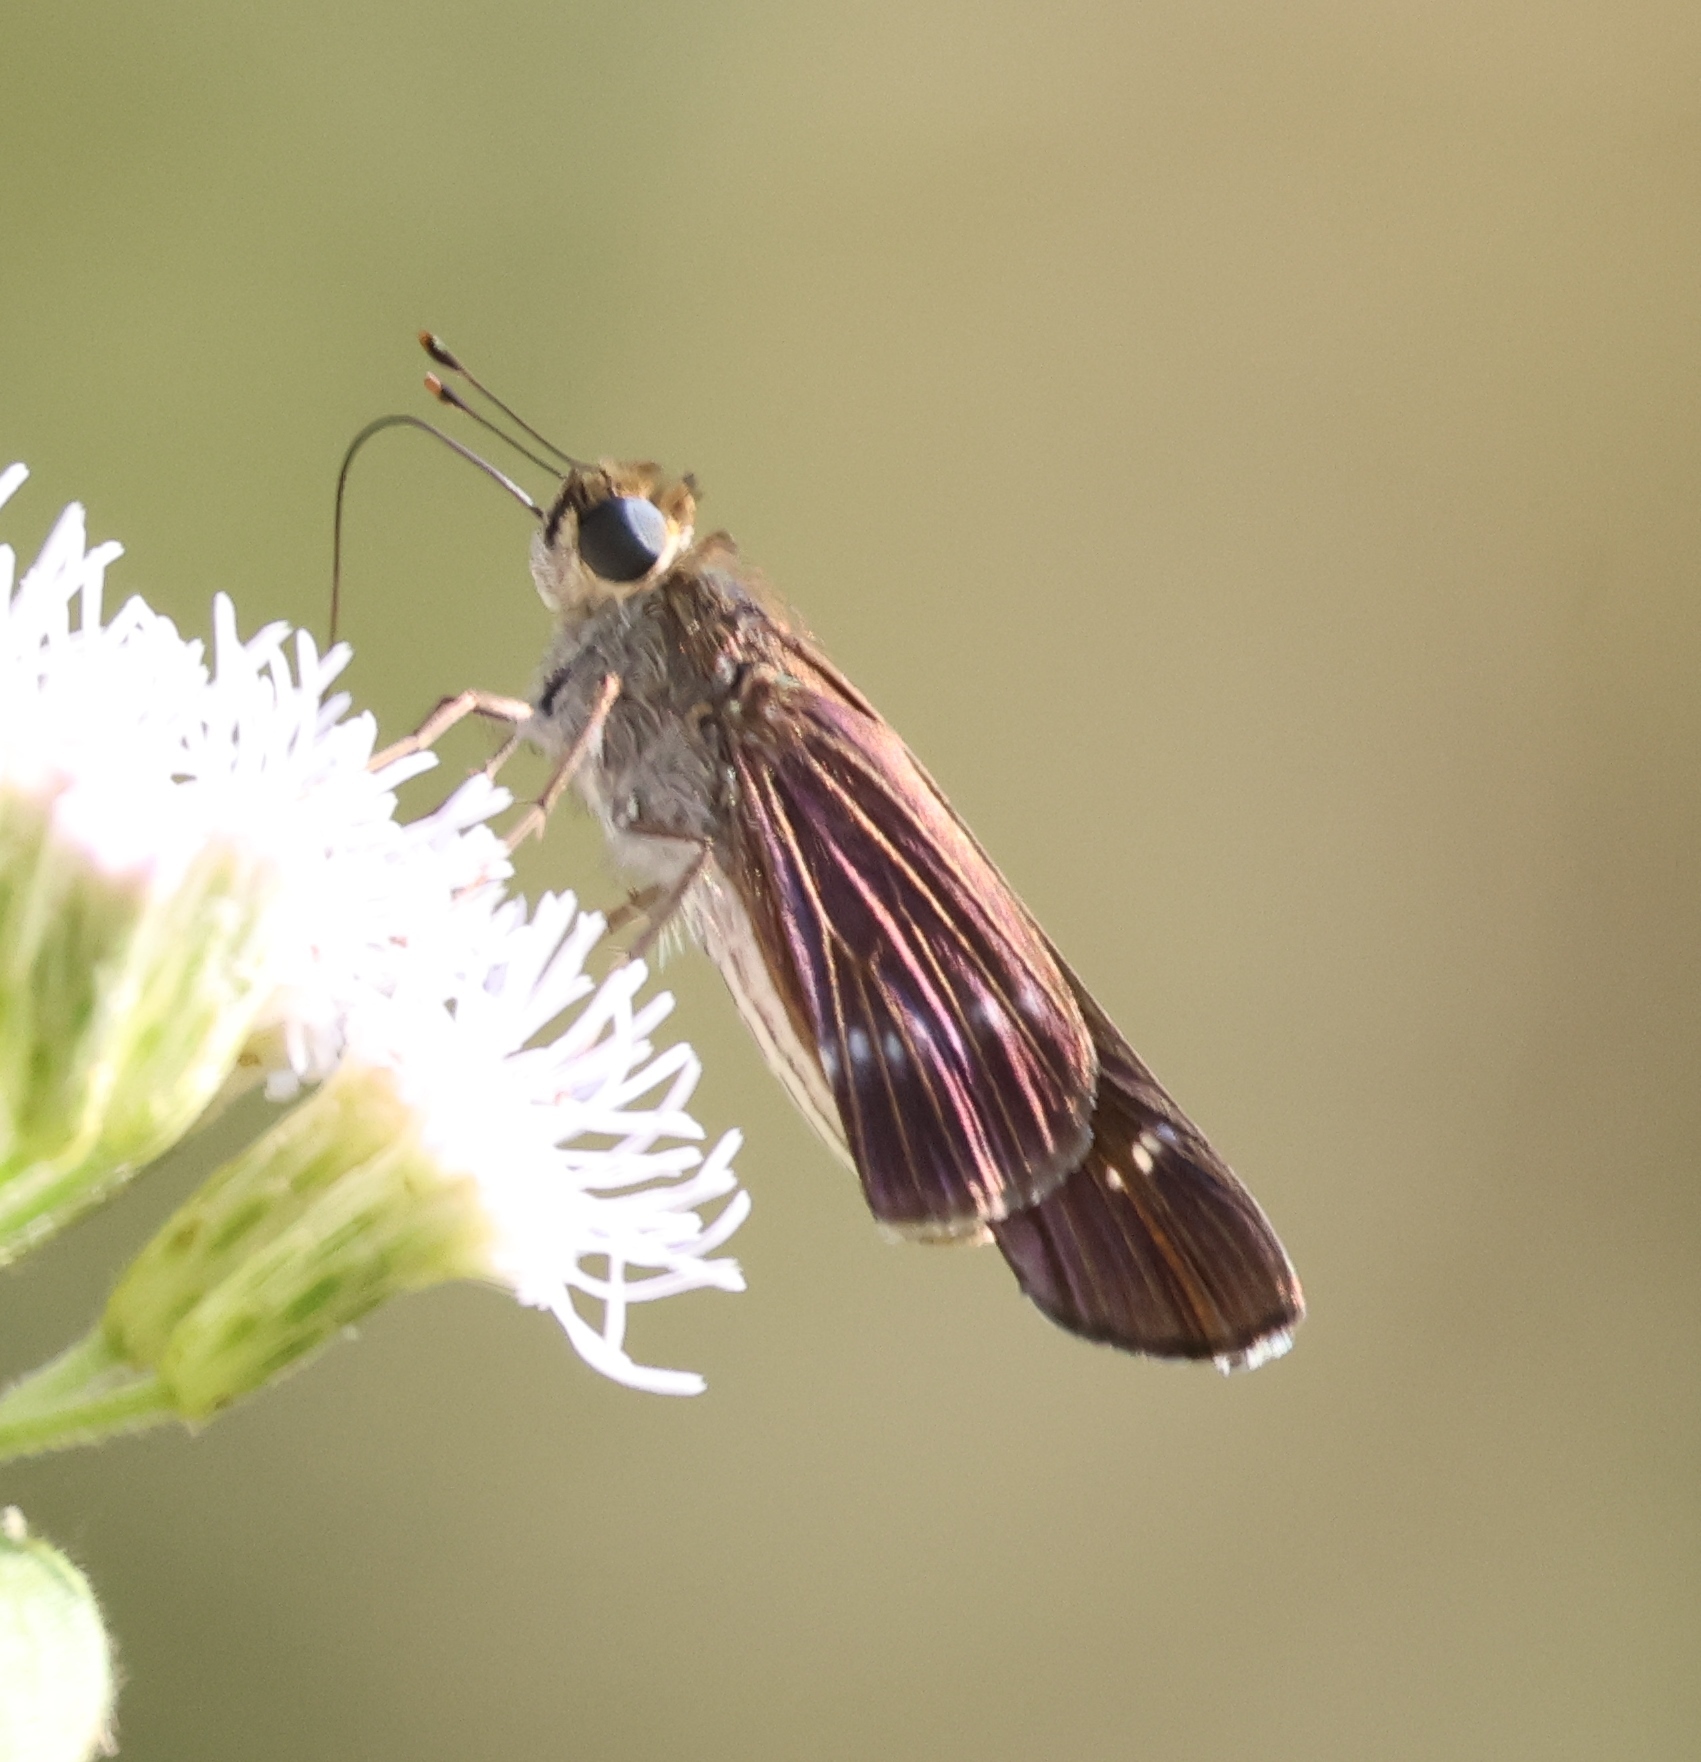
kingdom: Animalia
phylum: Arthropoda
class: Insecta
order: Lepidoptera
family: Hesperiidae
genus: Turesis
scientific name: Turesis lucas
